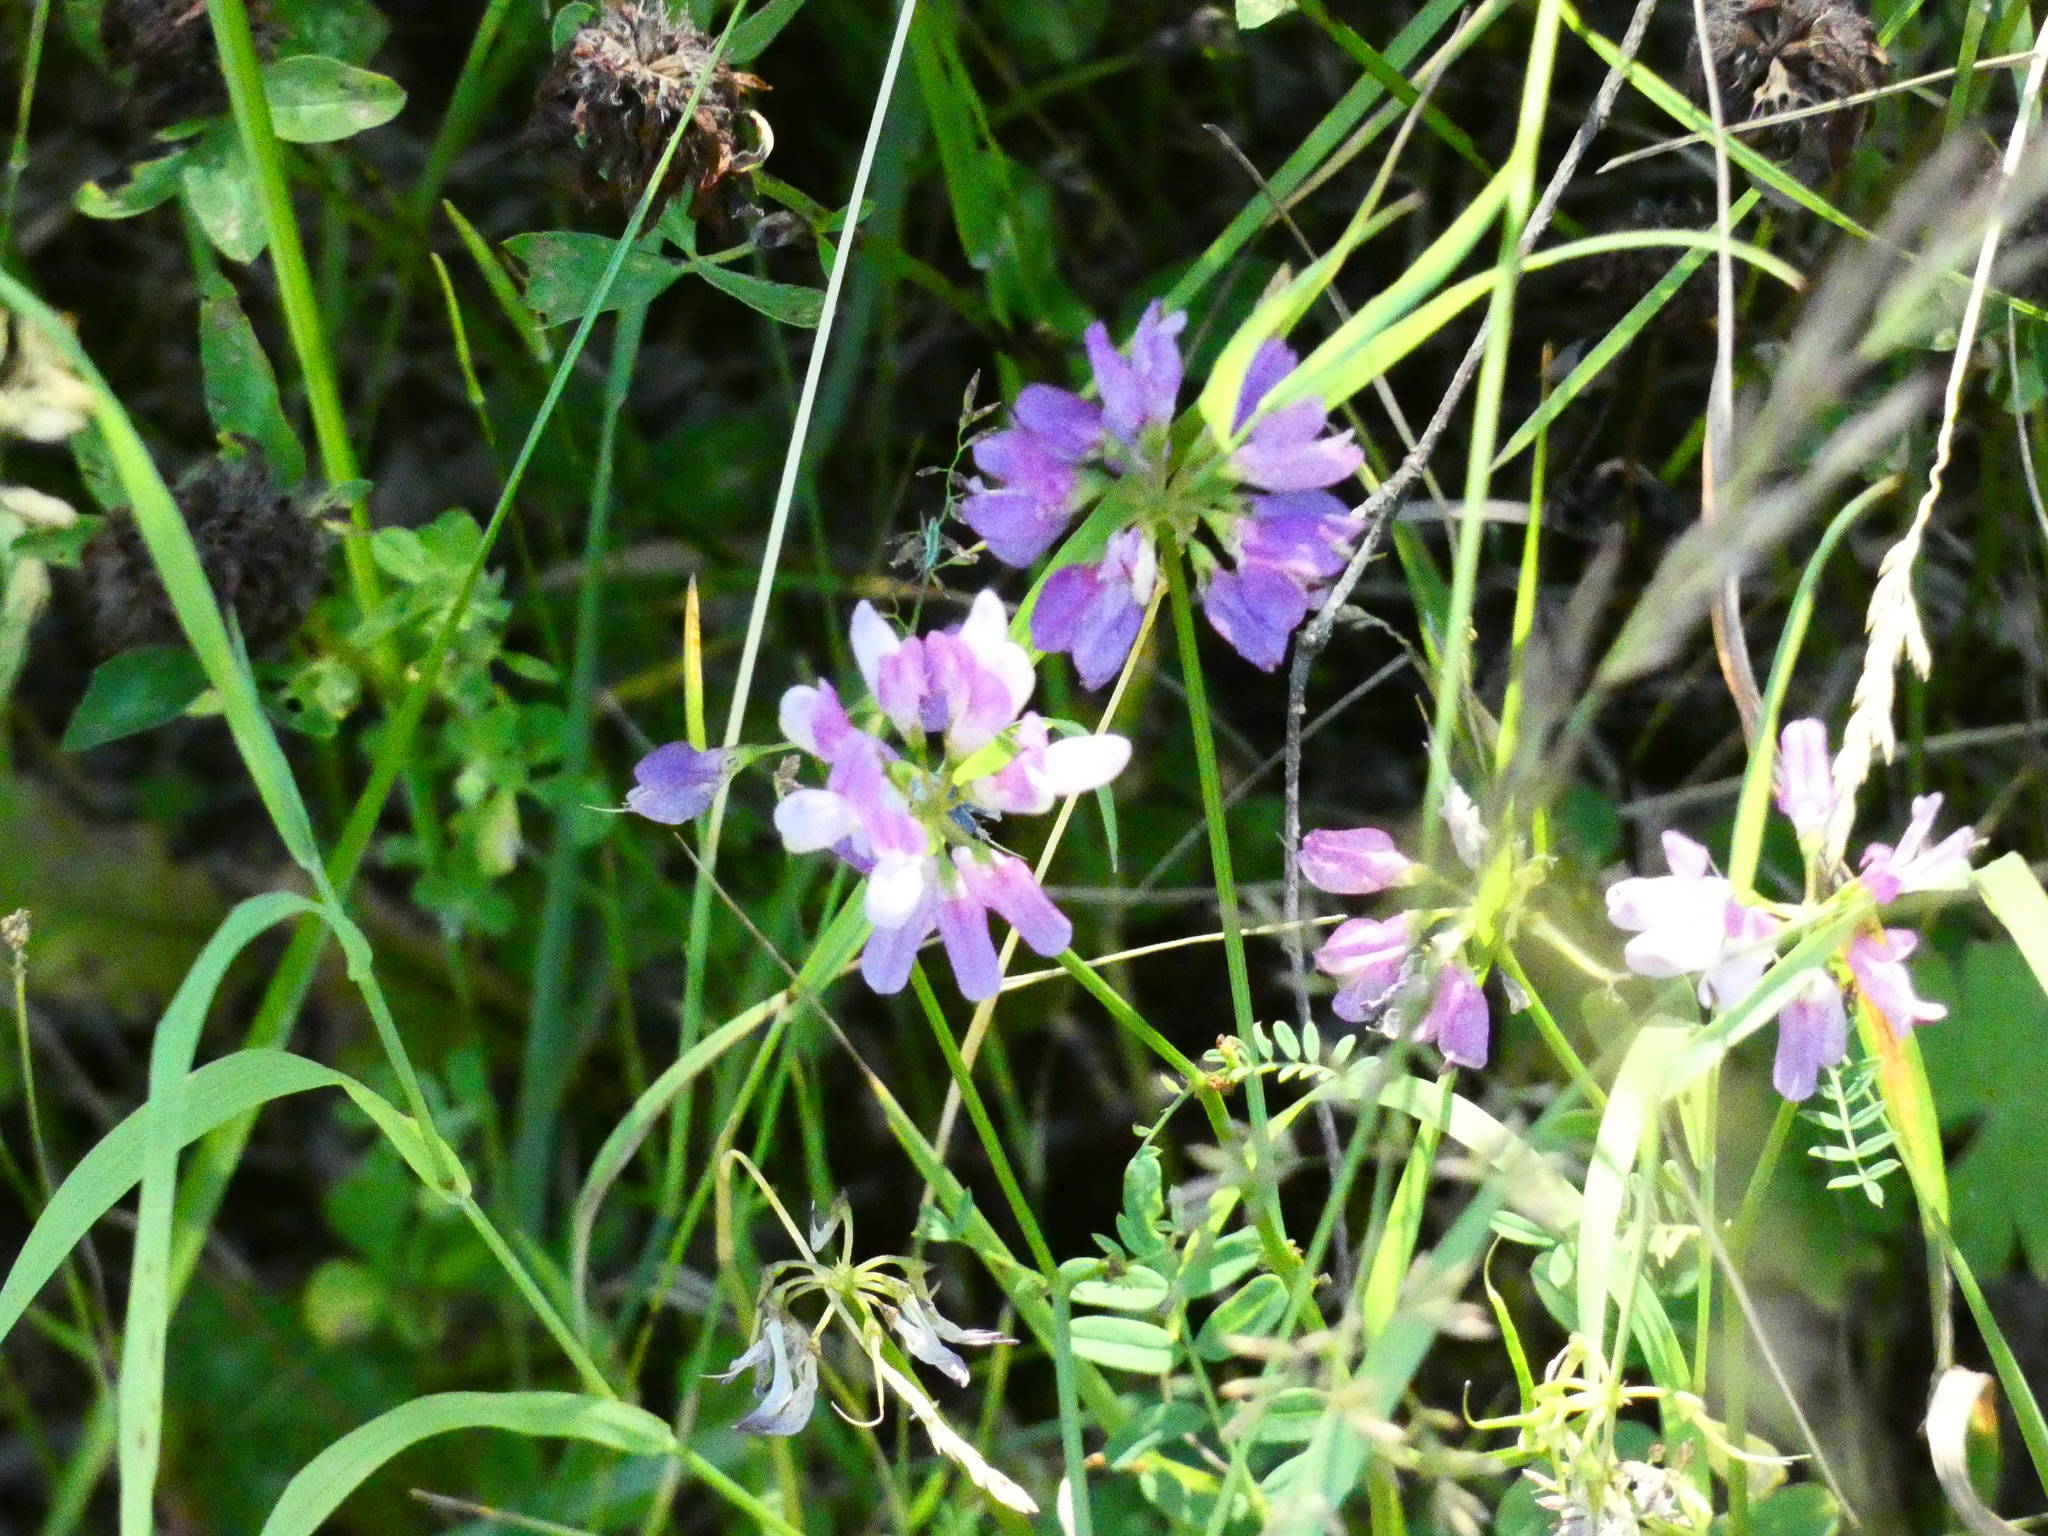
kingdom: Plantae
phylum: Tracheophyta
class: Magnoliopsida
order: Fabales
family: Fabaceae
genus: Coronilla
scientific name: Coronilla varia
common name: Crownvetch
